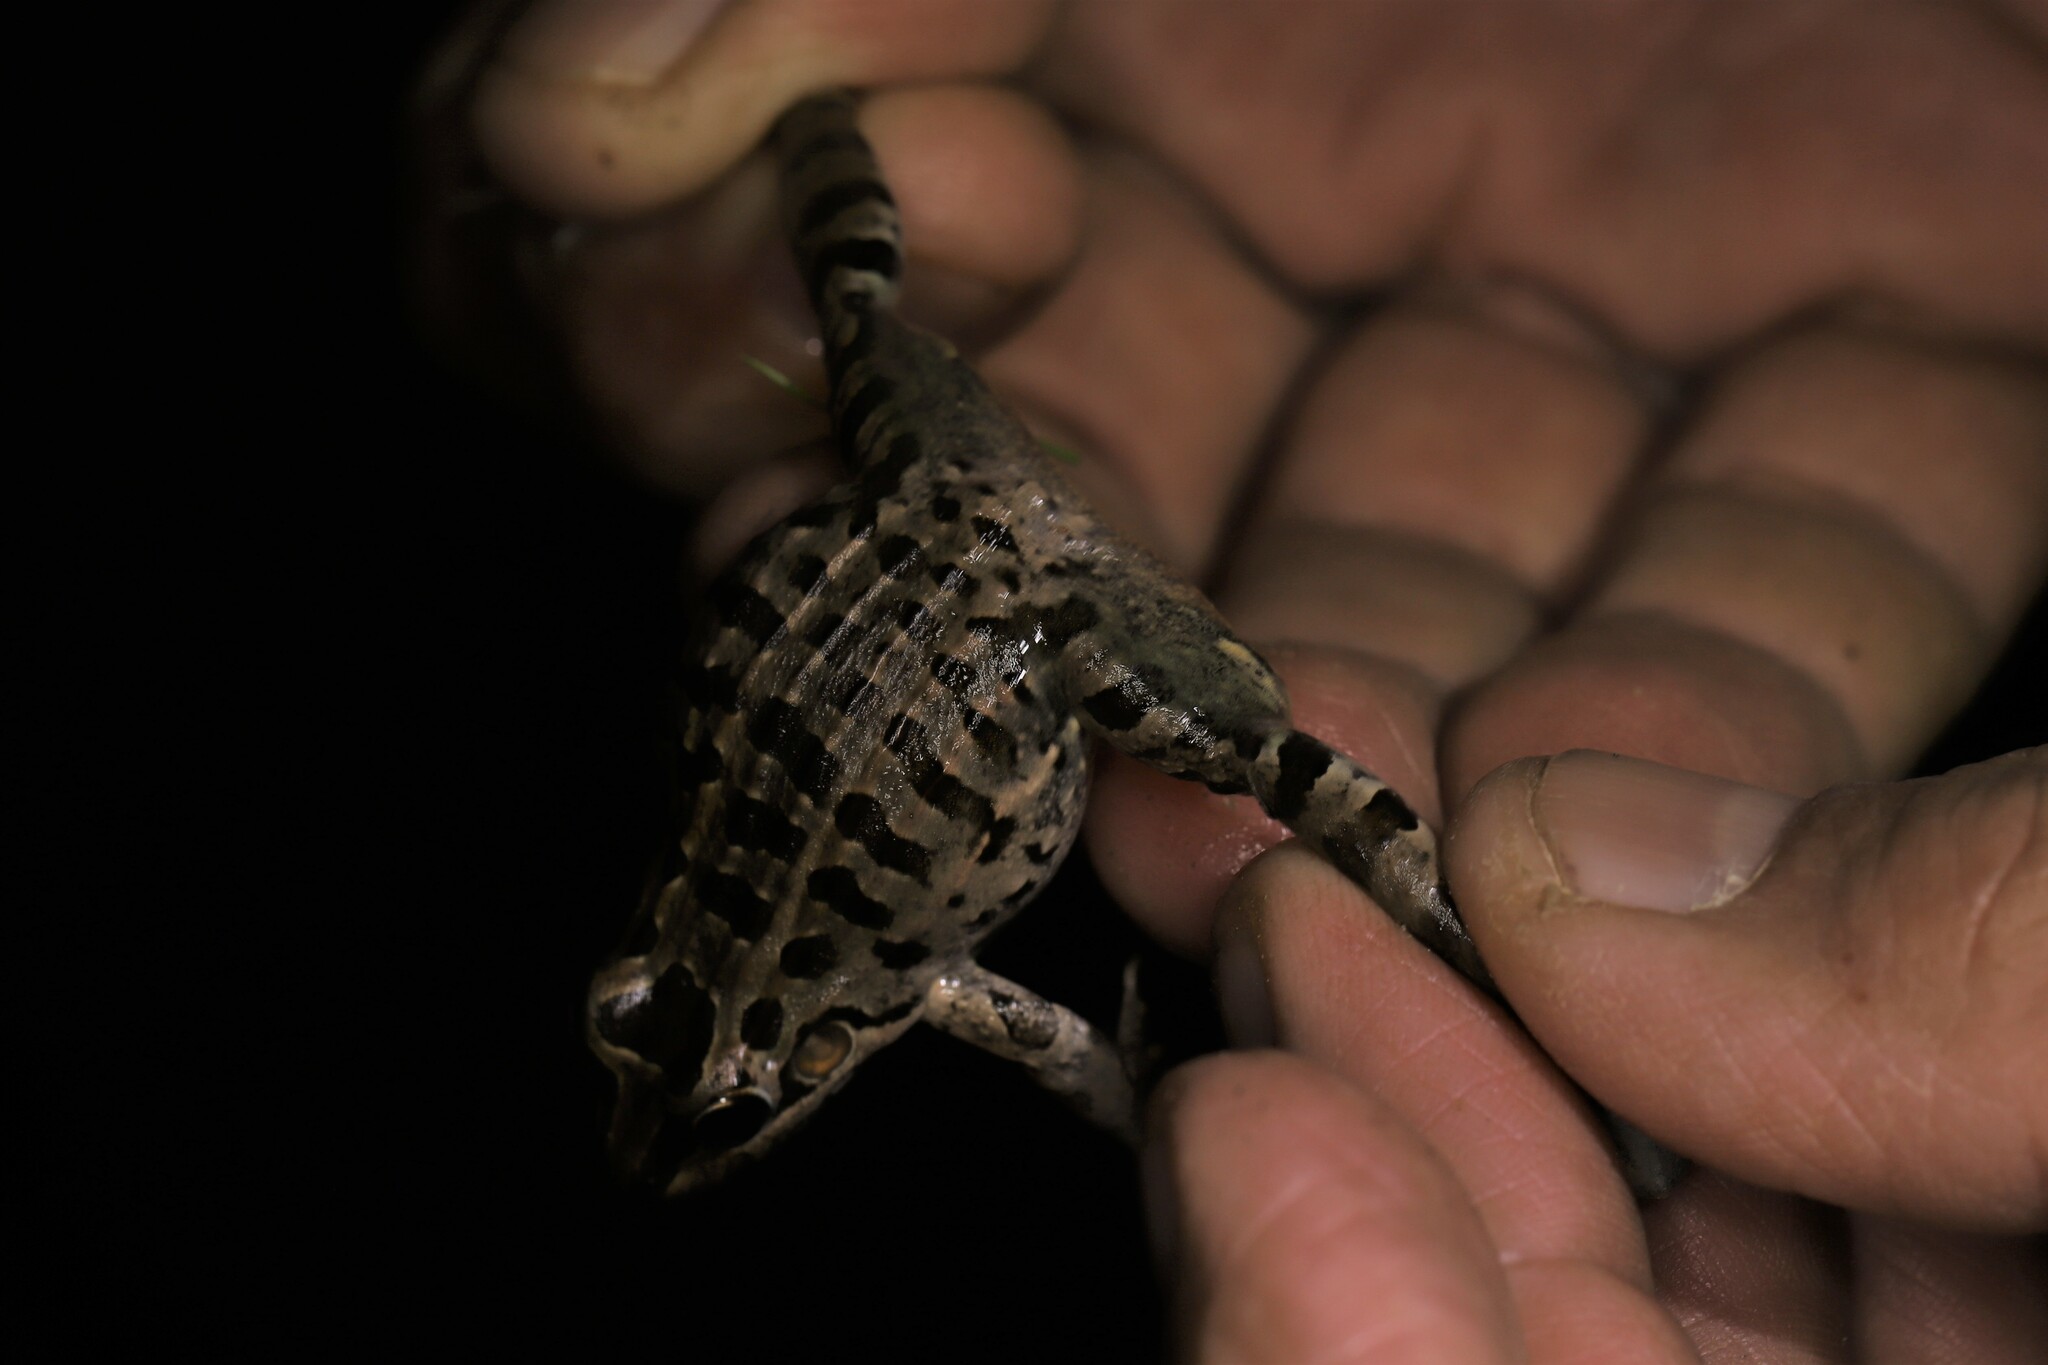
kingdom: Animalia
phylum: Chordata
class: Amphibia
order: Anura
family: Leptodactylidae
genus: Leptodactylus
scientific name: Leptodactylus macrosternum
